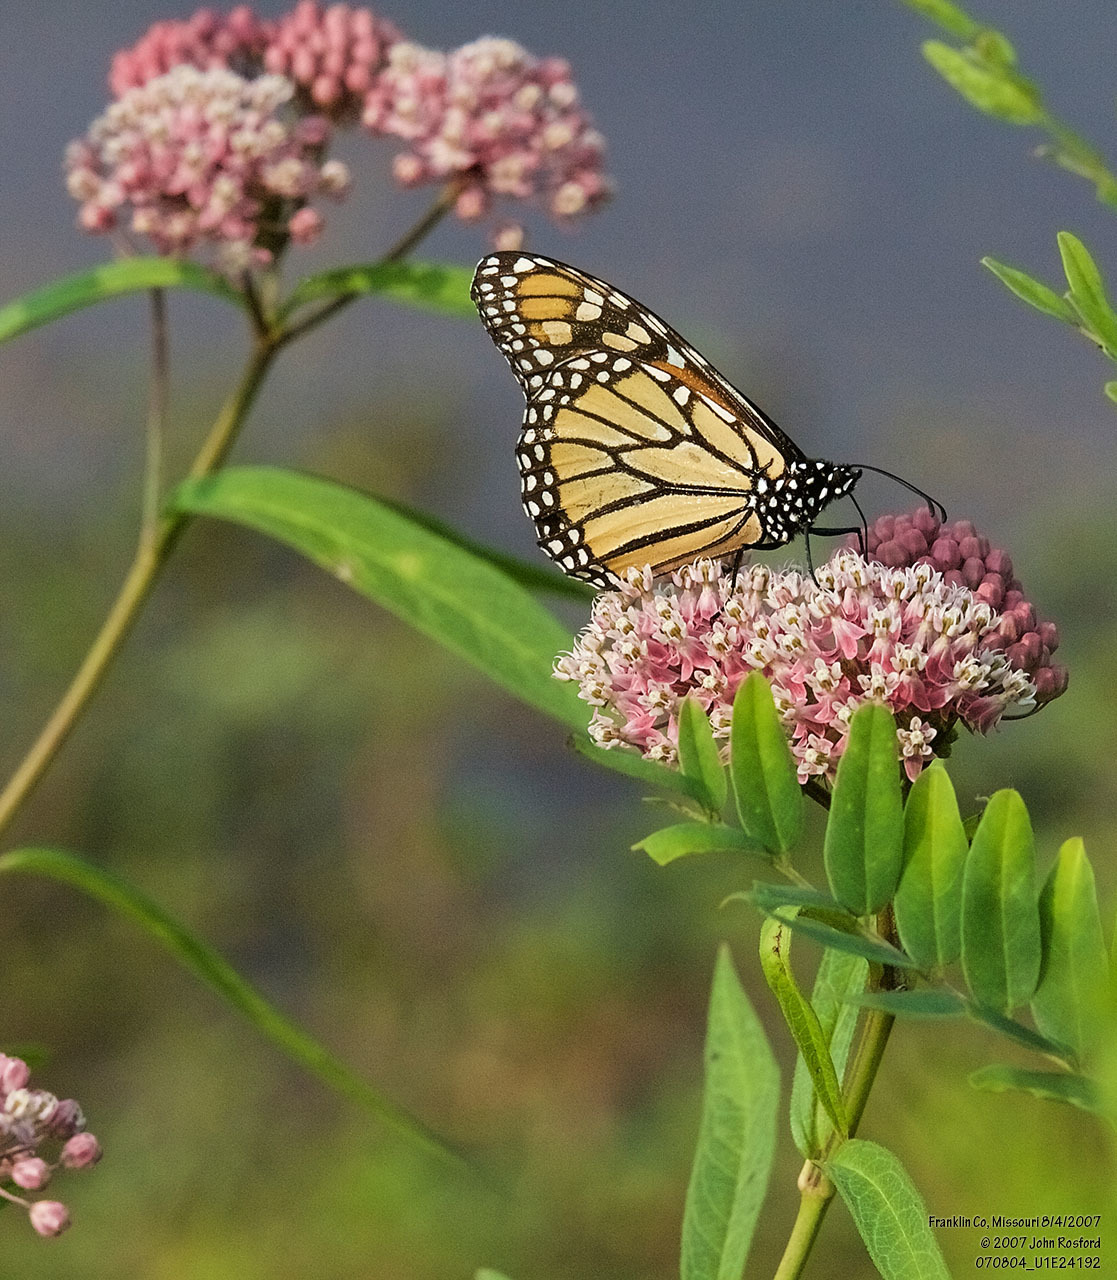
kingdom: Plantae
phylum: Tracheophyta
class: Magnoliopsida
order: Gentianales
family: Apocynaceae
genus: Asclepias
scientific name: Asclepias incarnata
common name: Swamp milkweed
